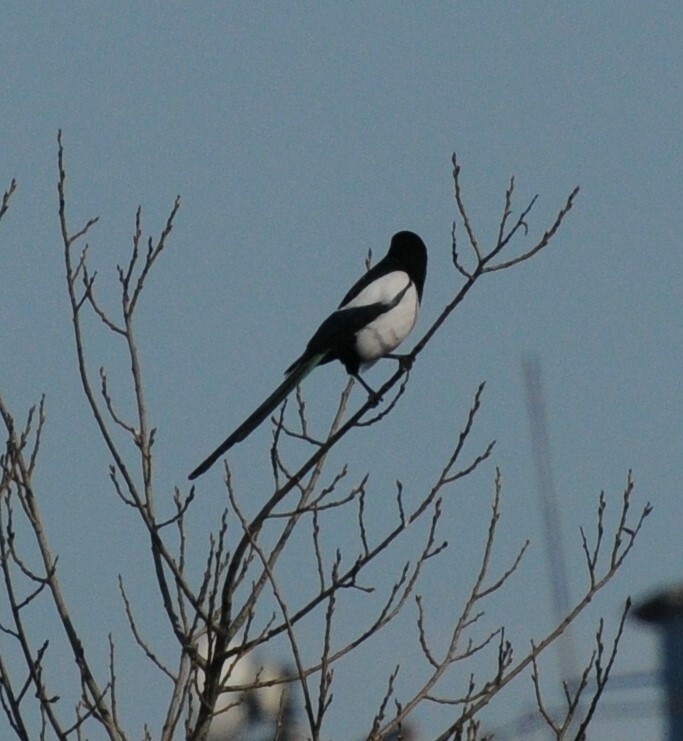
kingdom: Animalia
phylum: Chordata
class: Aves
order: Passeriformes
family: Corvidae
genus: Pica
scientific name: Pica pica
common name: Eurasian magpie
